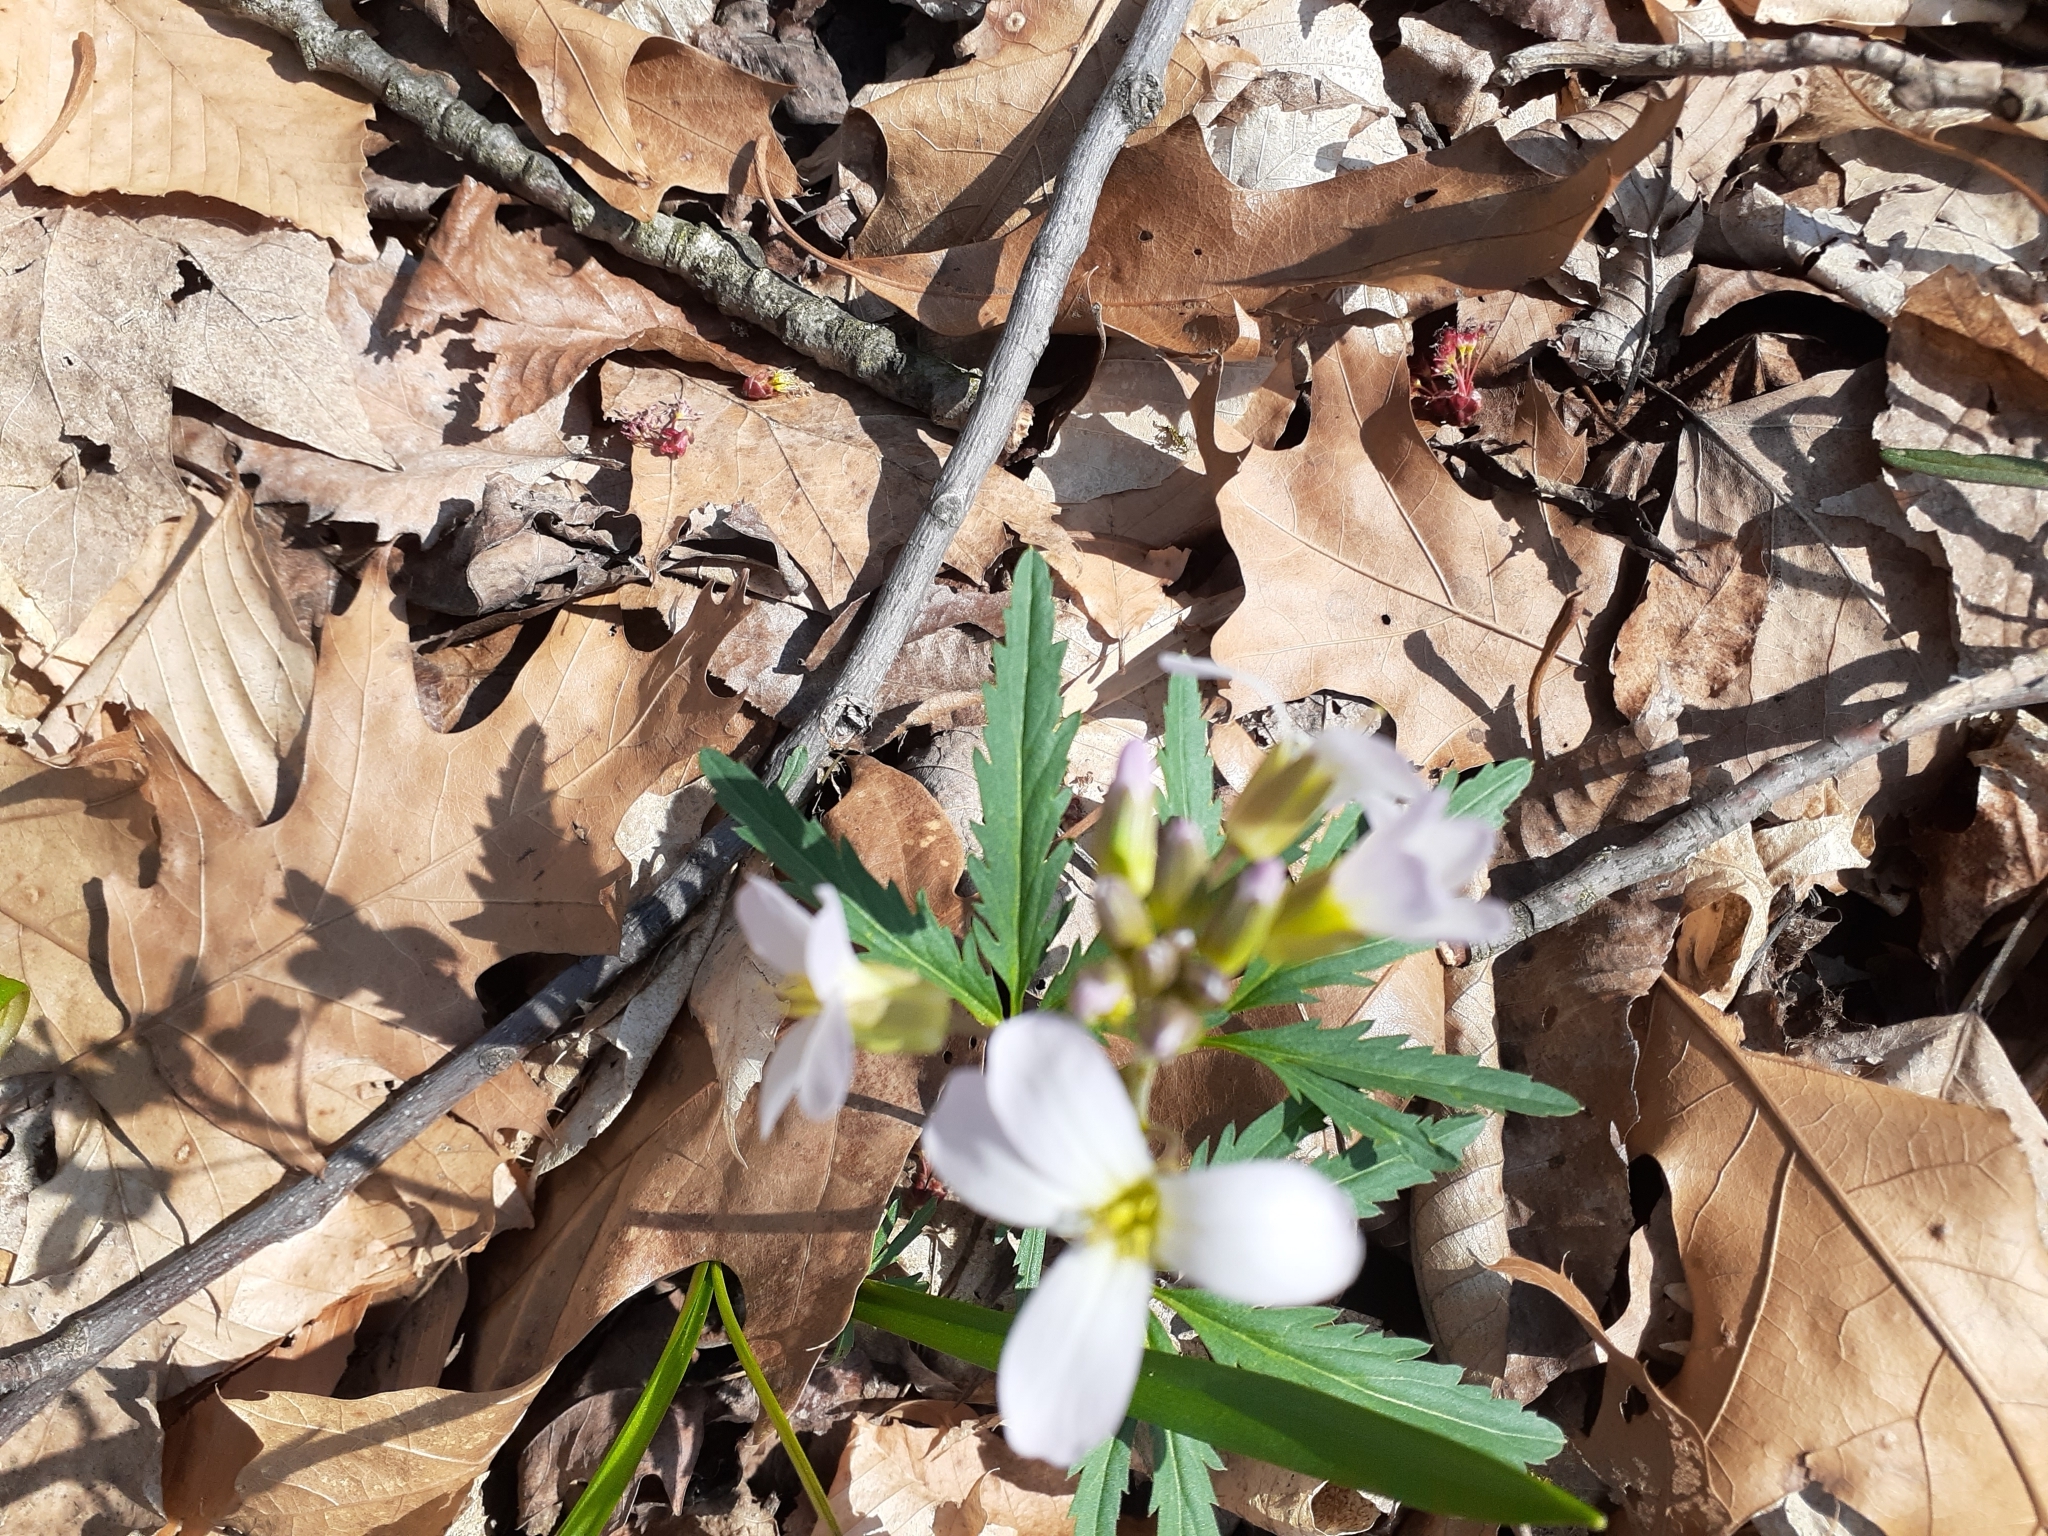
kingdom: Plantae
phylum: Tracheophyta
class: Magnoliopsida
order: Brassicales
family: Brassicaceae
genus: Cardamine
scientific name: Cardamine concatenata
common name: Cut-leaf toothcup
